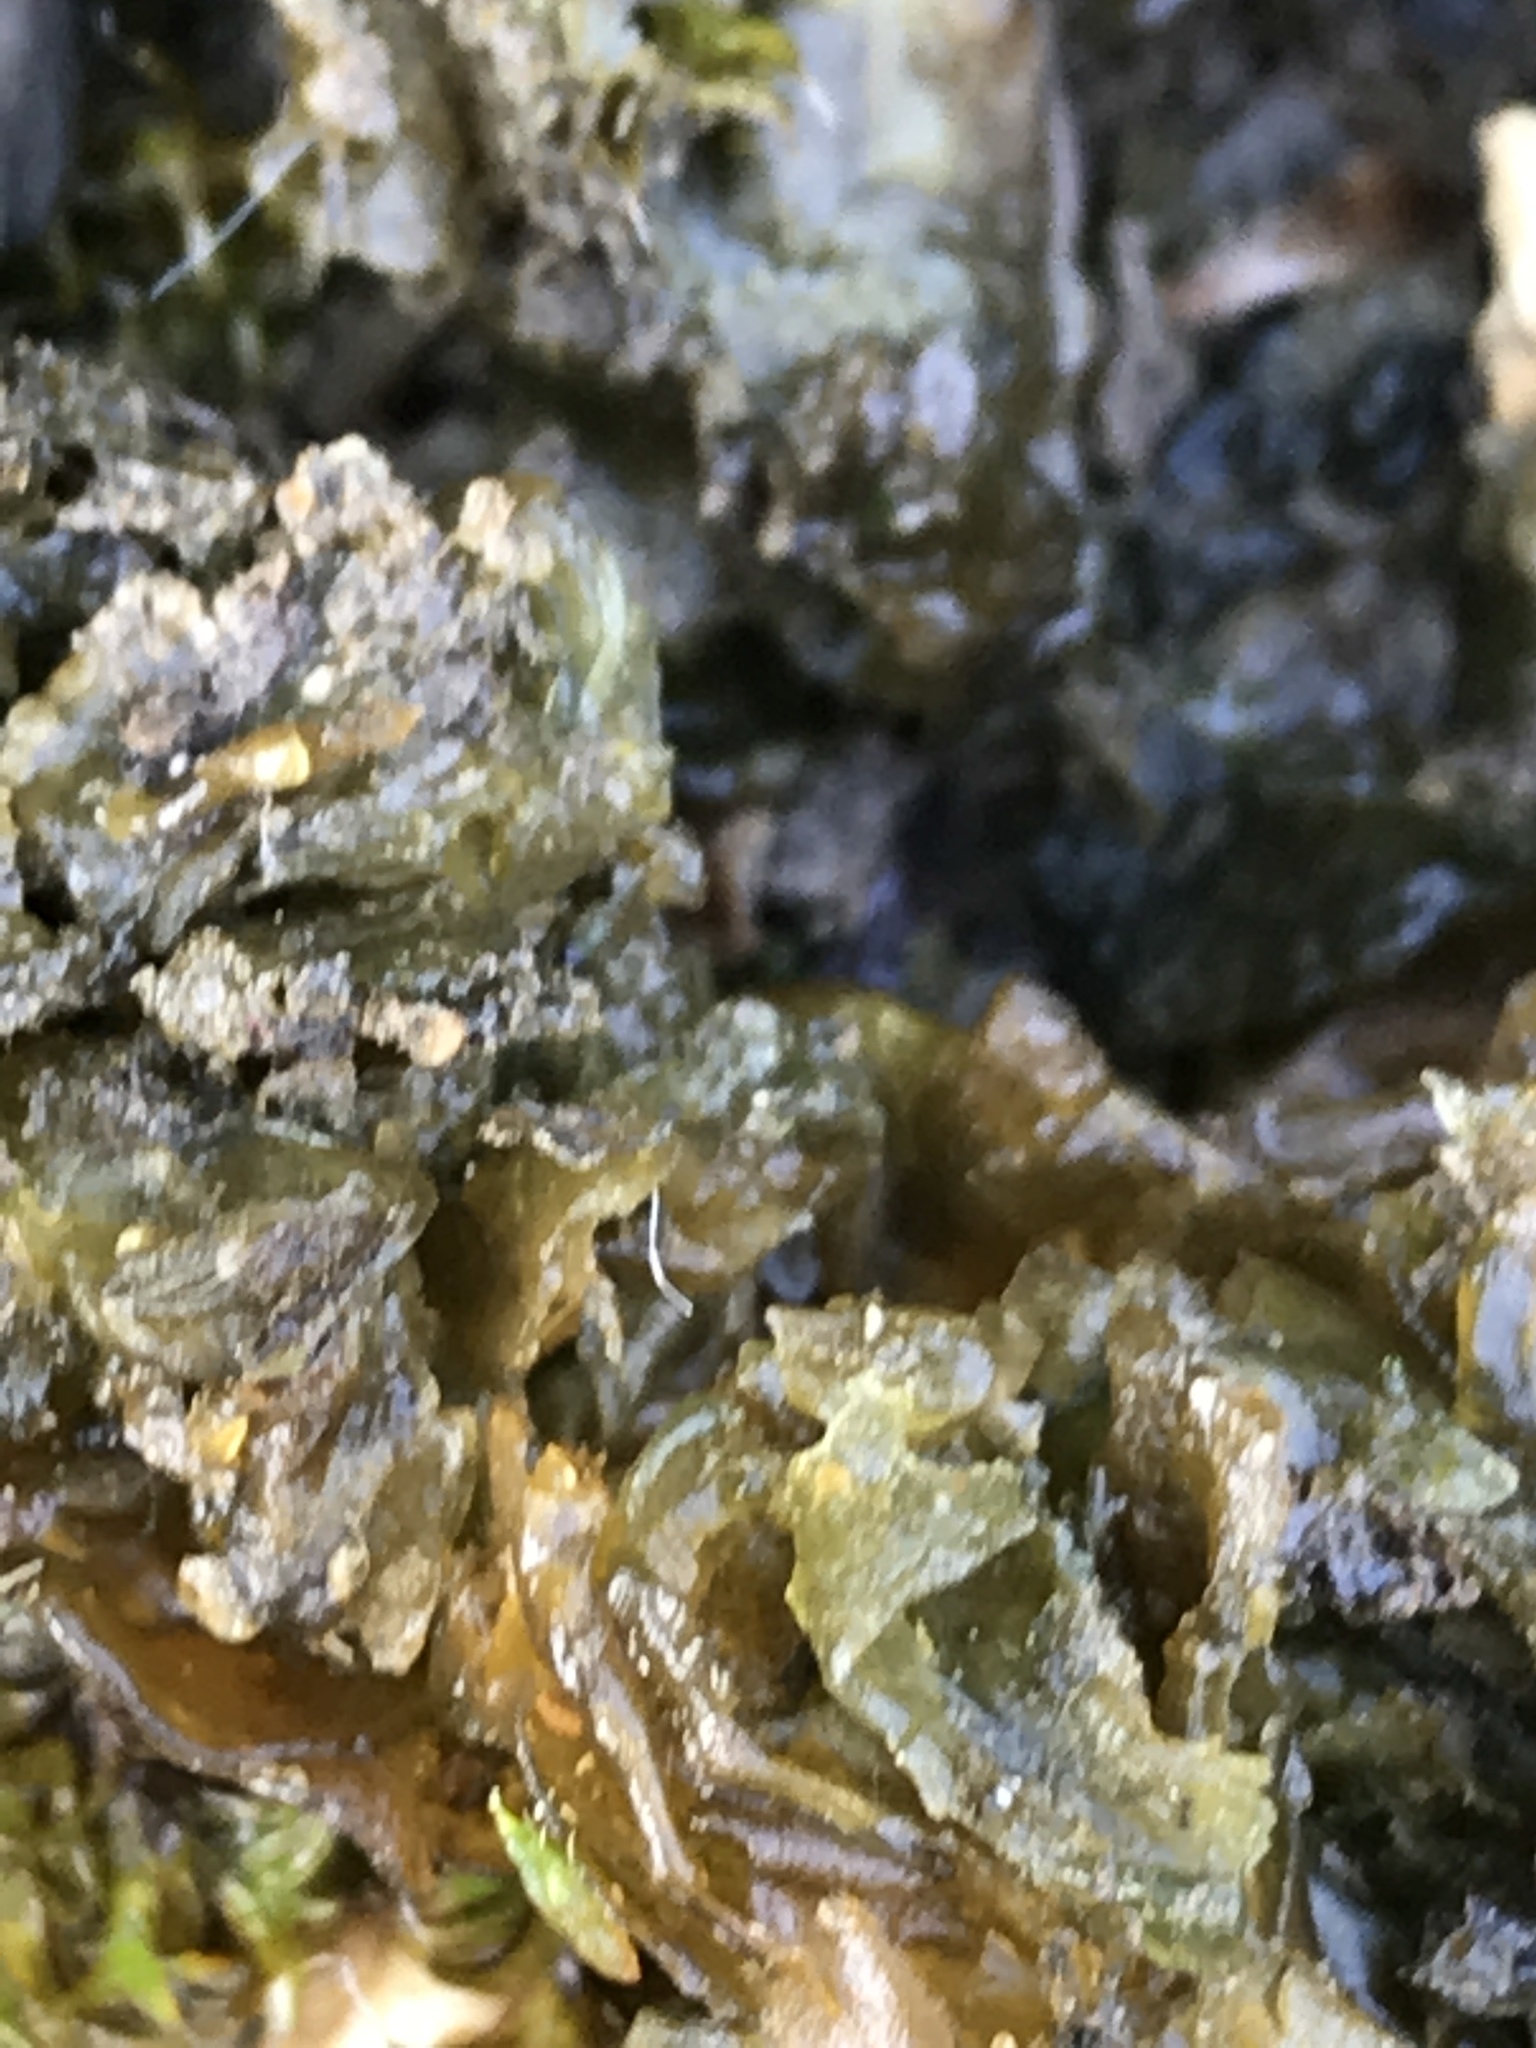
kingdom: Bacteria
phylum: Cyanobacteria
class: Cyanobacteriia
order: Cyanobacteriales
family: Nostocaceae
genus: Nostoc
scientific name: Nostoc commune
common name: Star jelly
